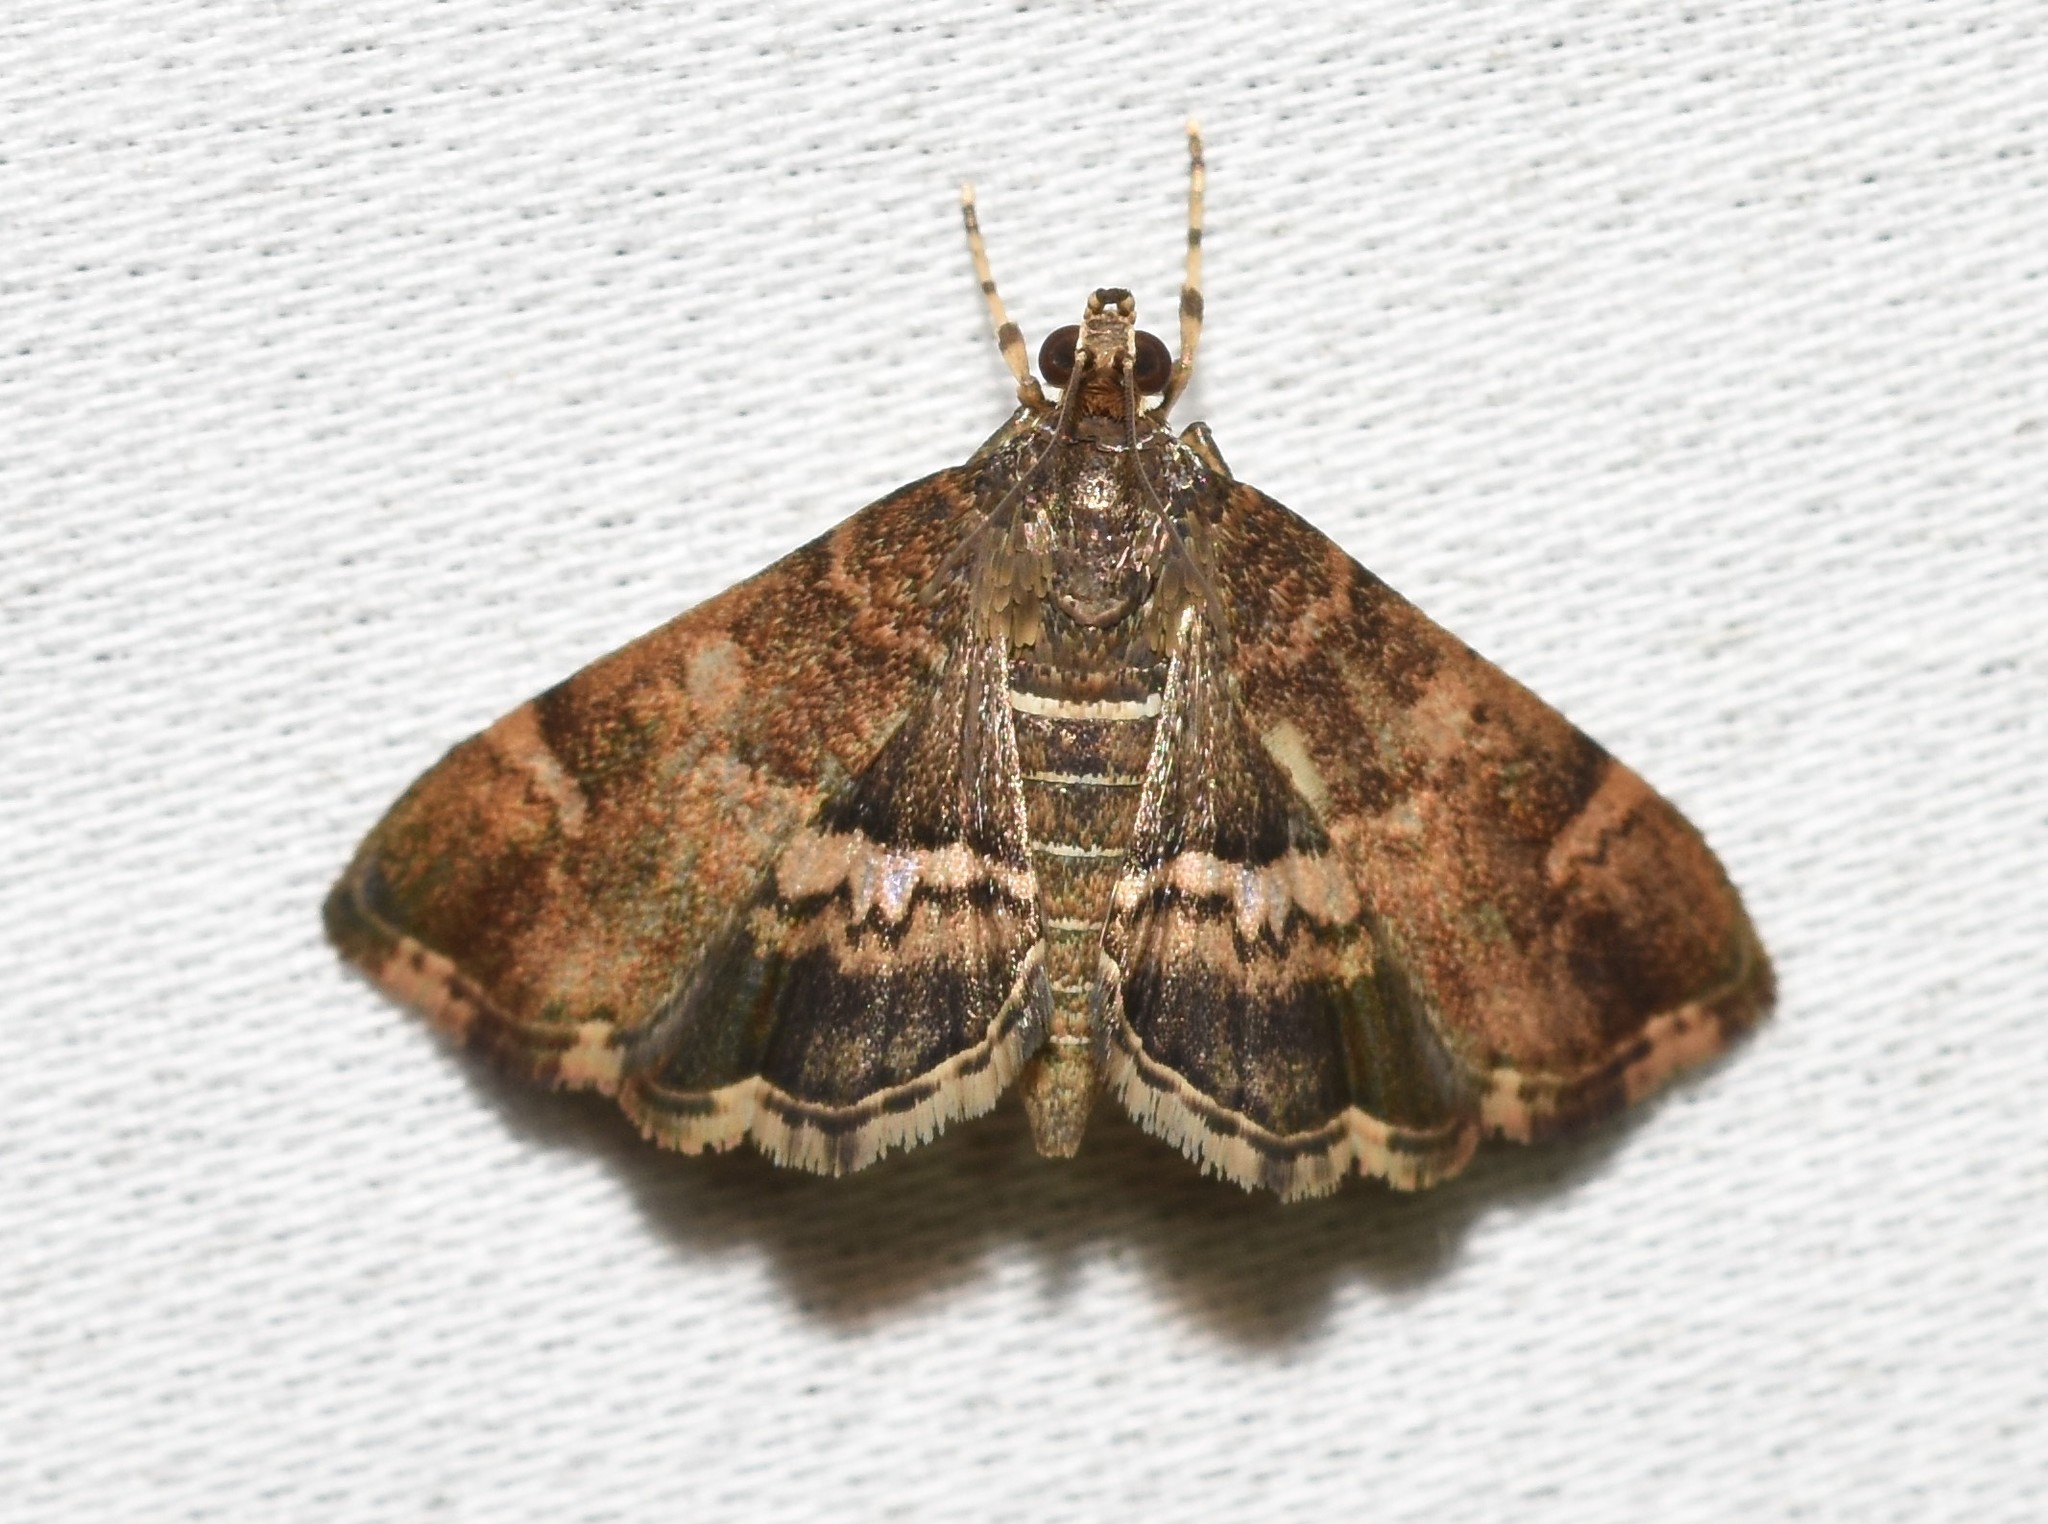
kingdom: Animalia
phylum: Arthropoda
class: Insecta
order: Lepidoptera
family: Crambidae
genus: Hymenia
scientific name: Hymenia perspectalis
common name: Spotted beet webworm
